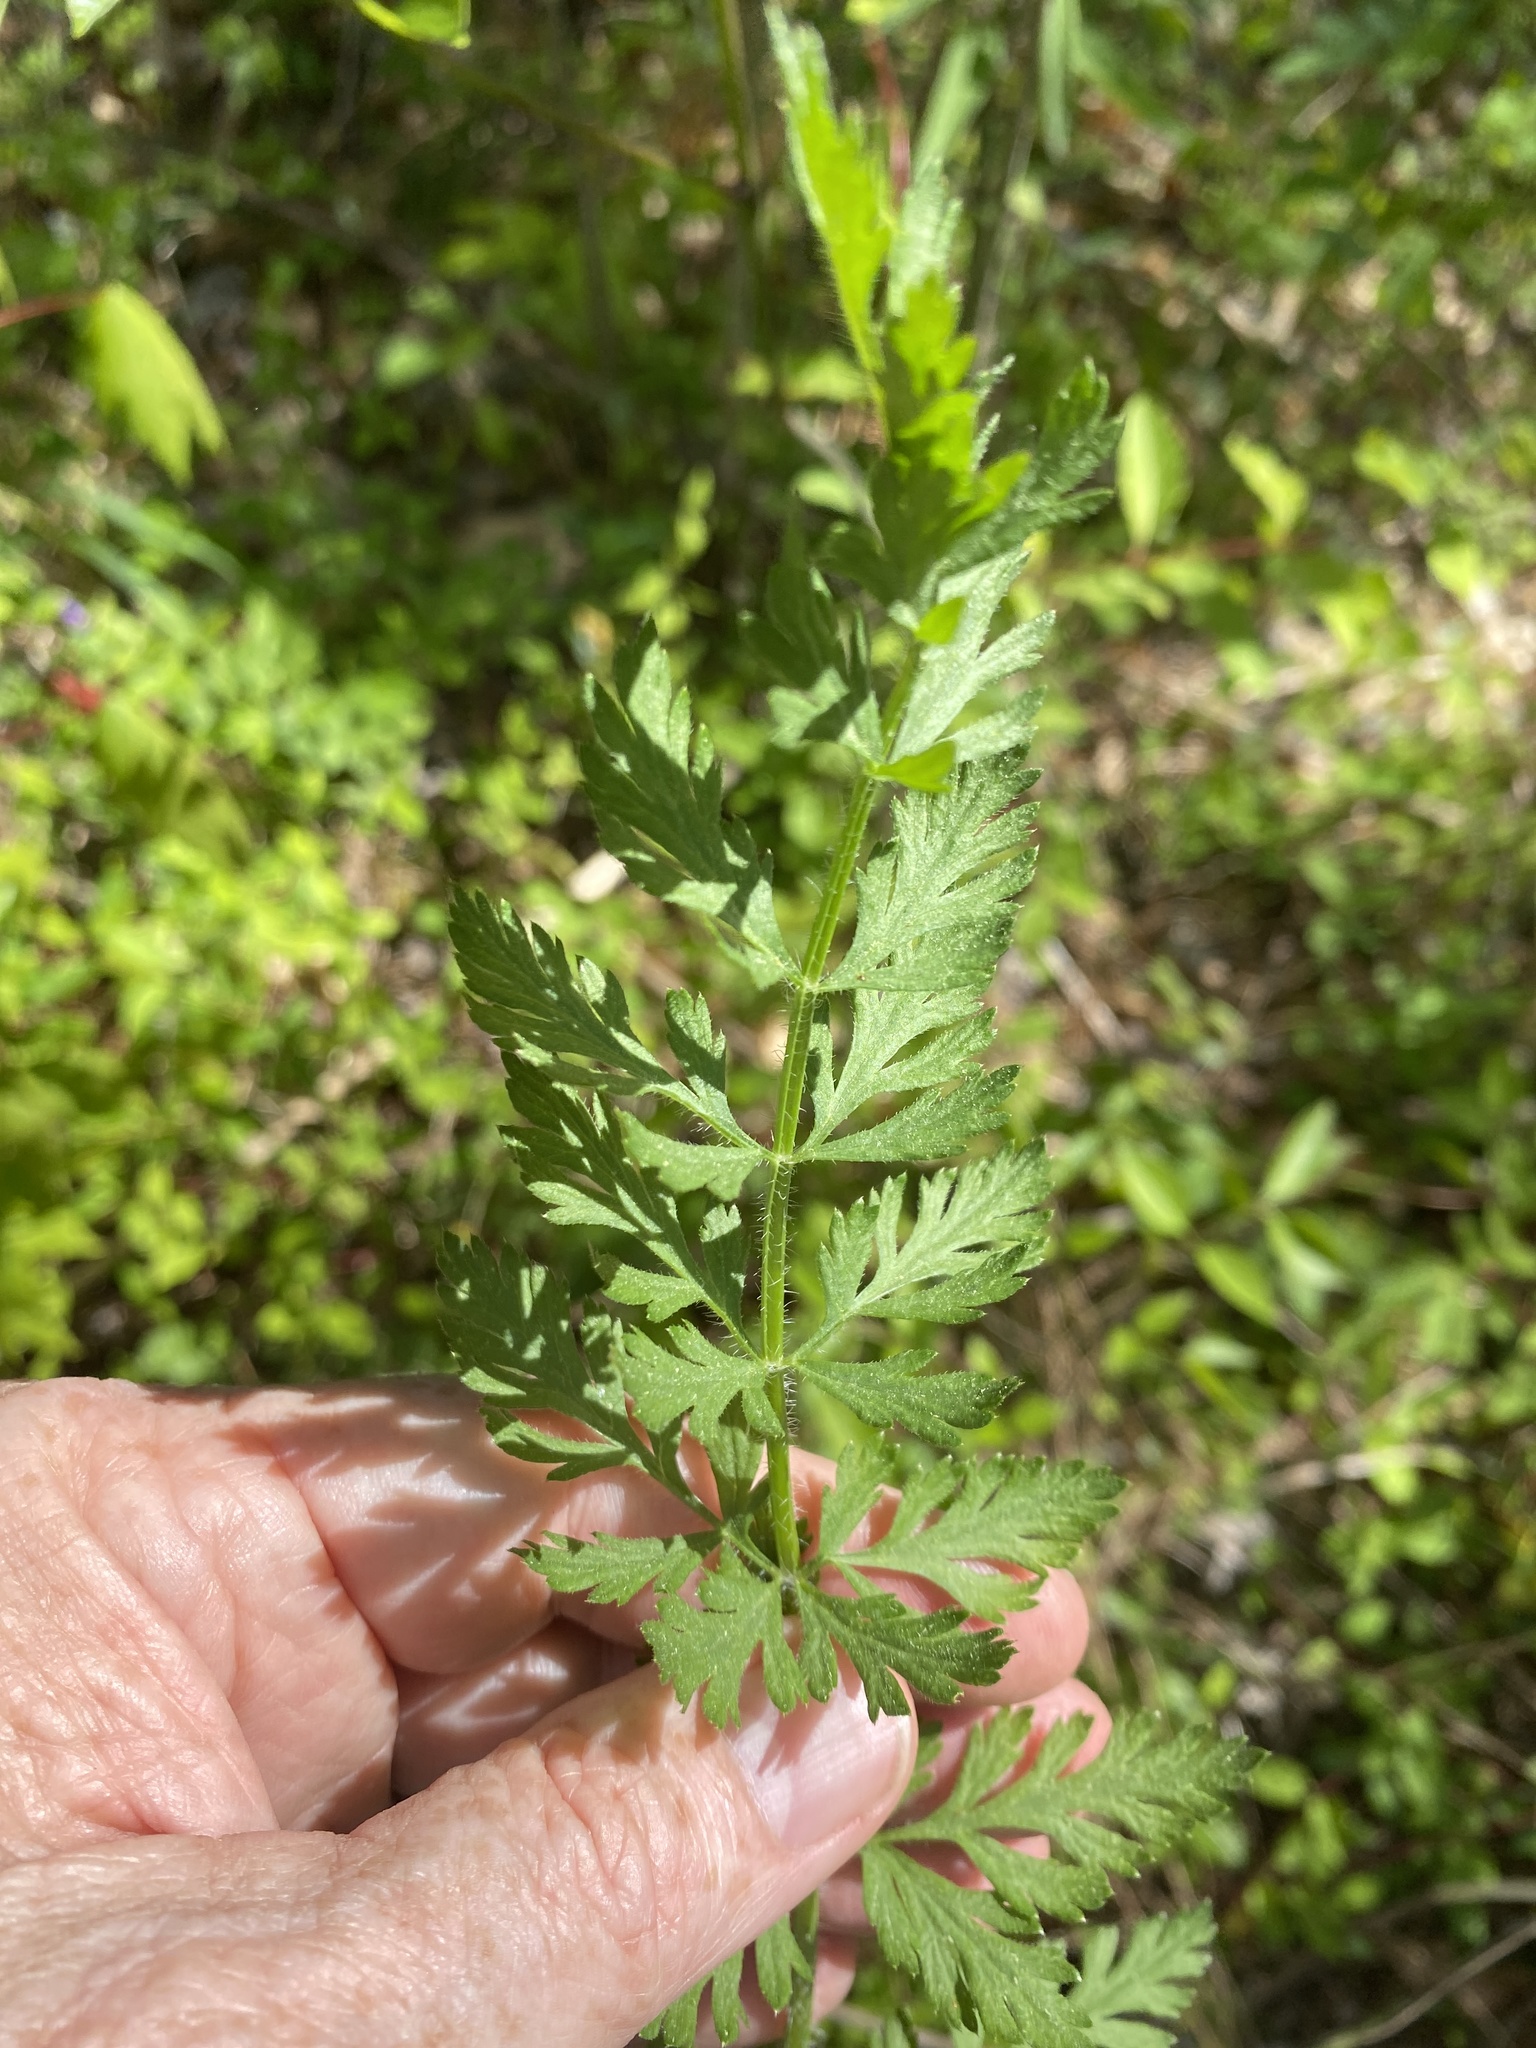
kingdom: Plantae
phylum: Tracheophyta
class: Magnoliopsida
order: Apiales
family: Apiaceae
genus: Daucus
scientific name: Daucus carota
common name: Wild carrot
